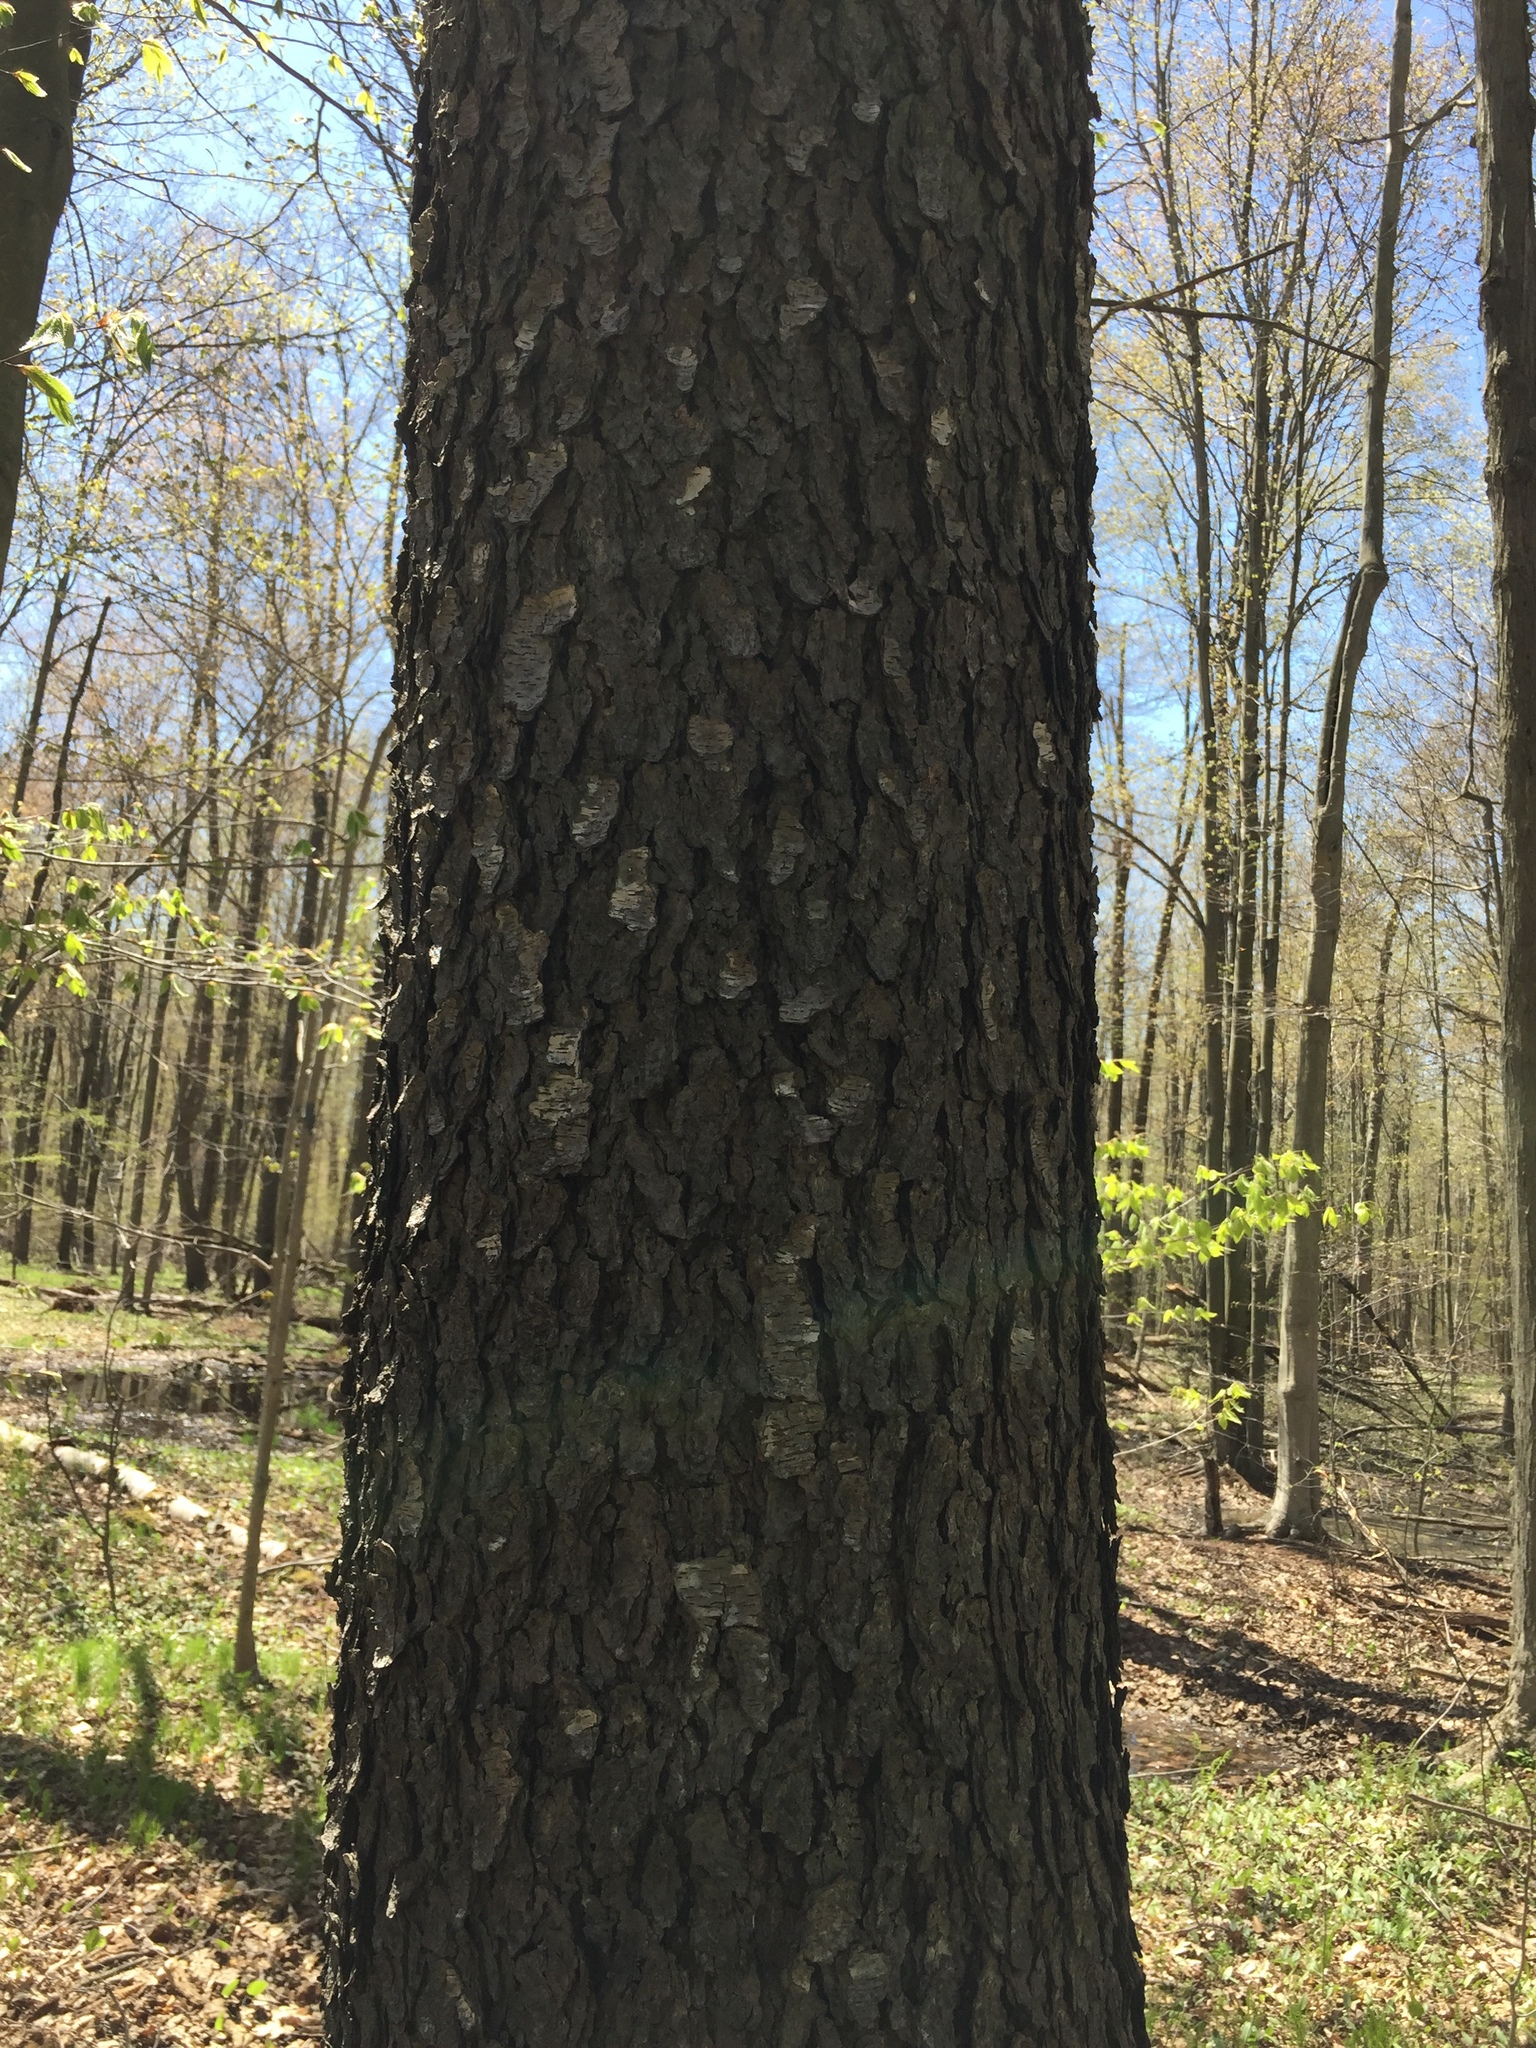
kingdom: Plantae
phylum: Tracheophyta
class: Magnoliopsida
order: Rosales
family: Rosaceae
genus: Prunus
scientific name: Prunus serotina
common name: Black cherry
